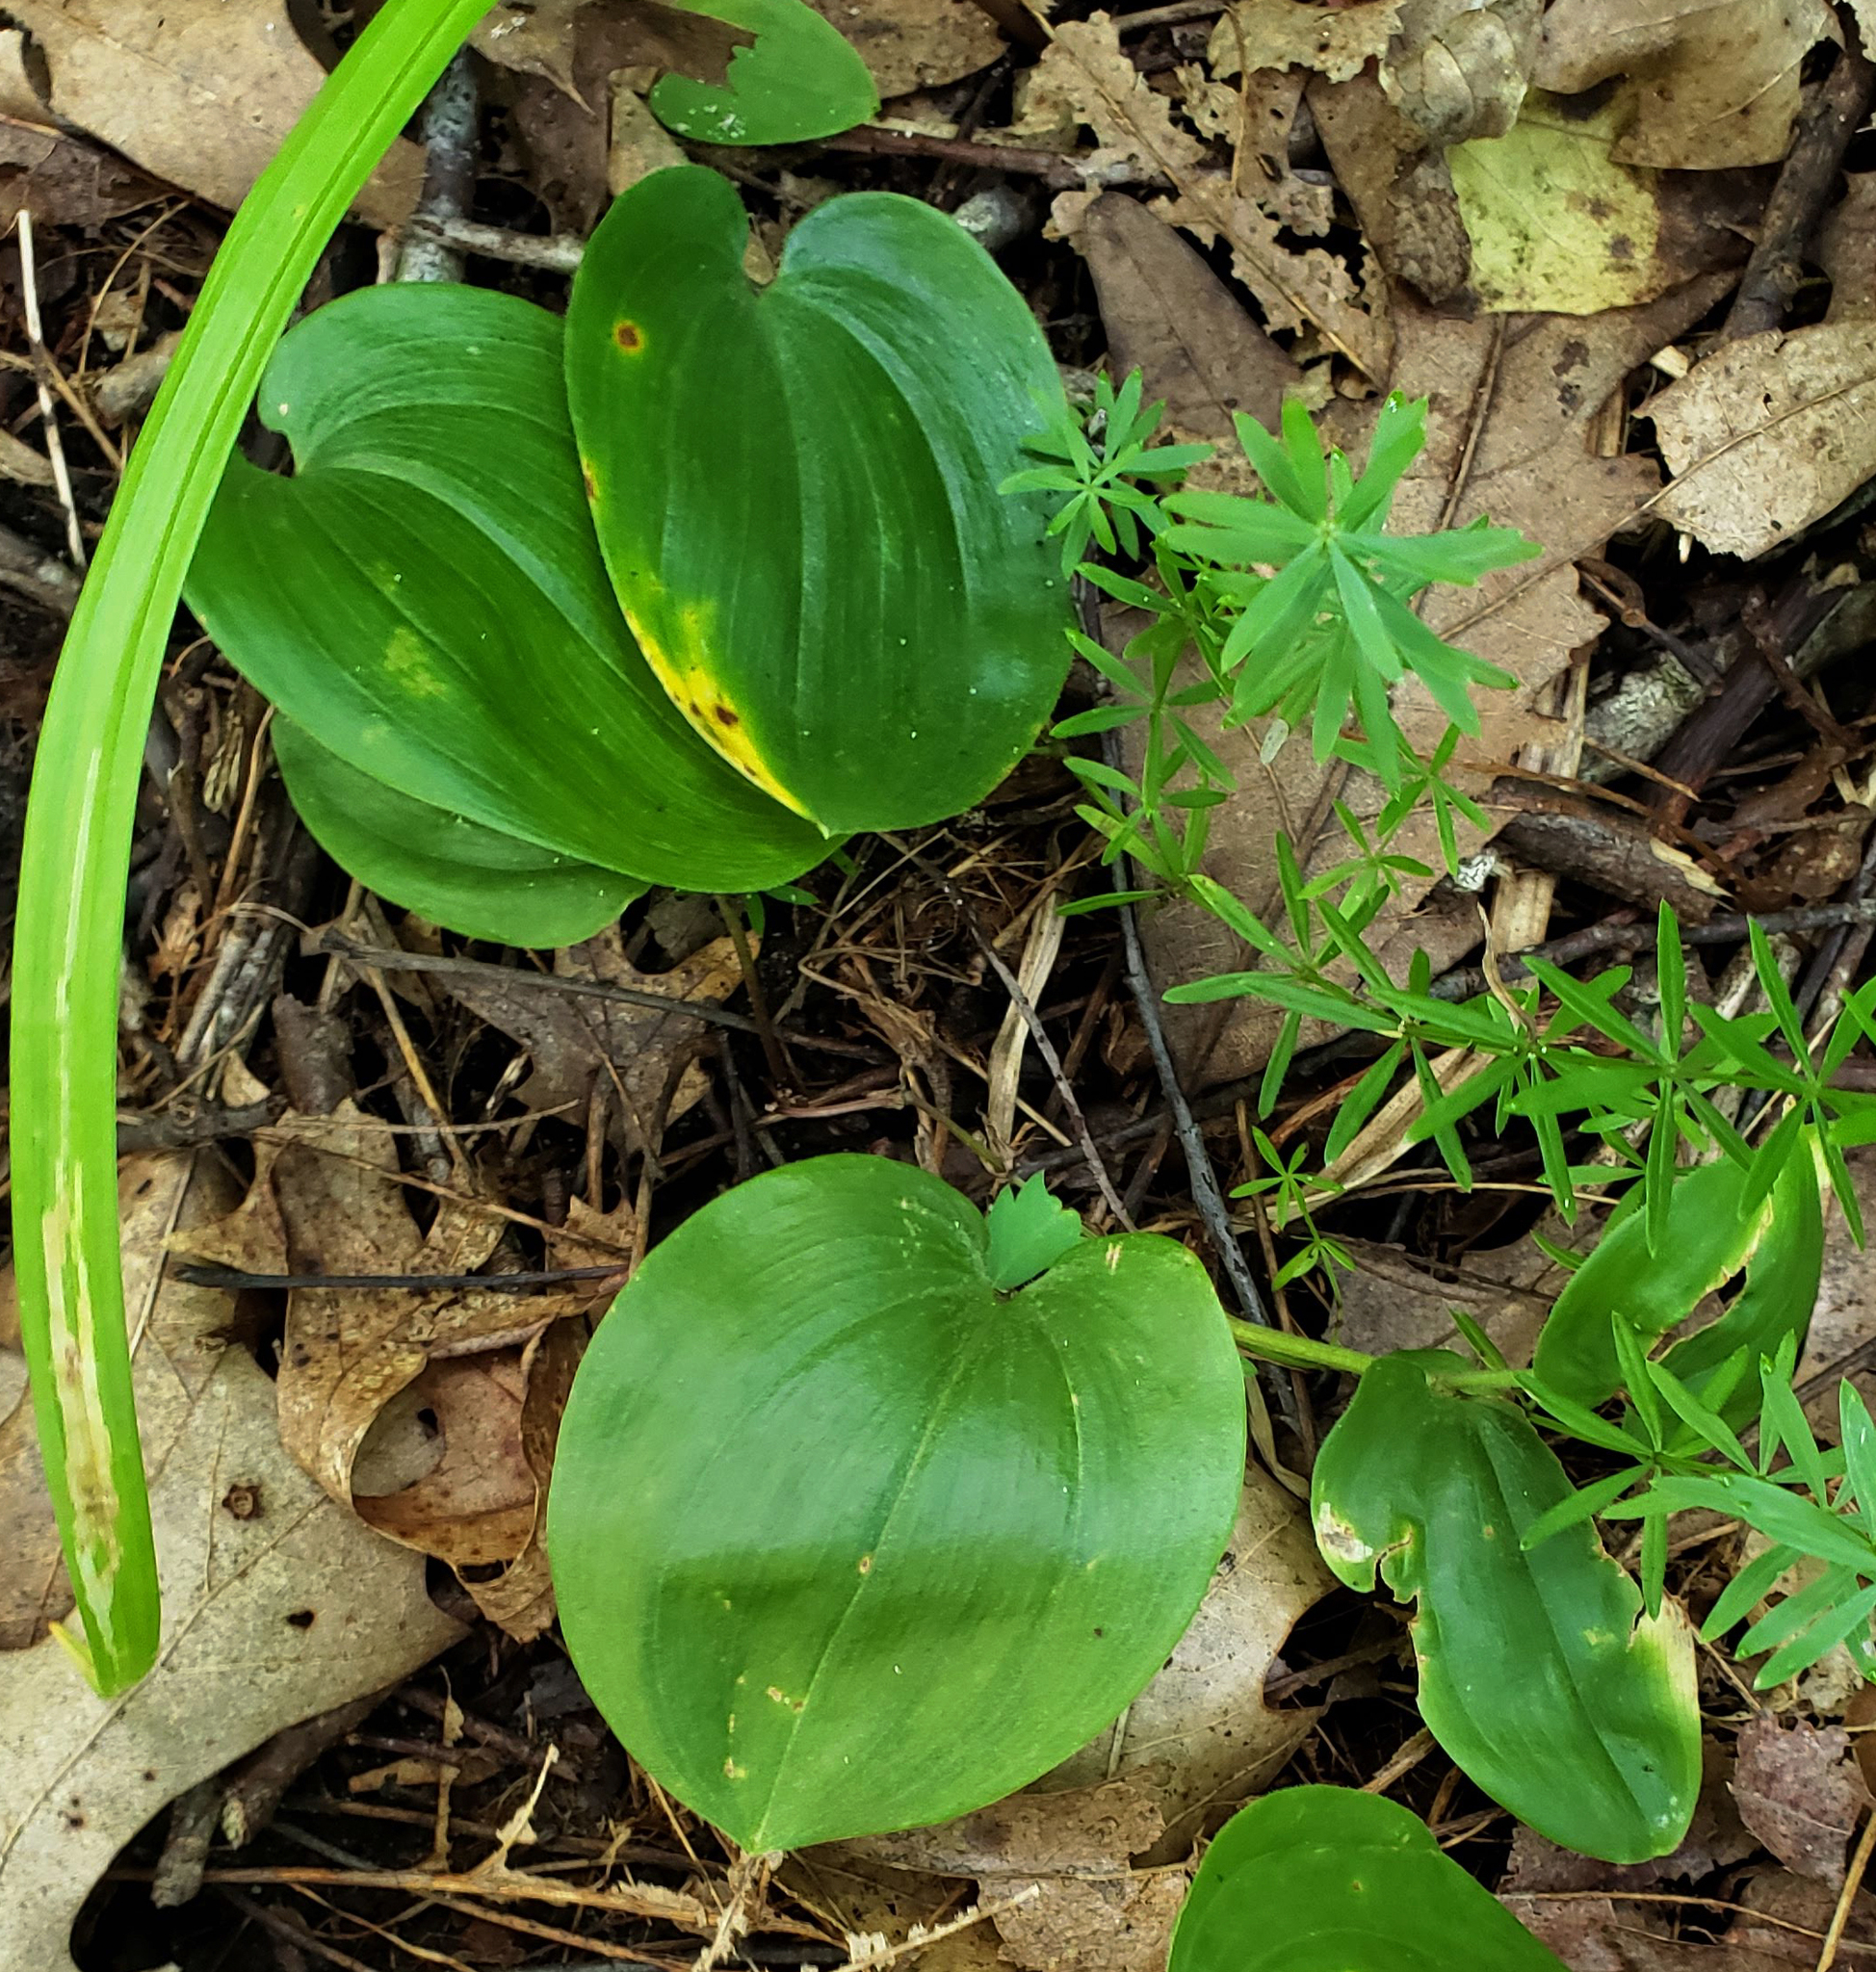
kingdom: Plantae
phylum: Tracheophyta
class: Liliopsida
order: Asparagales
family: Asparagaceae
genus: Maianthemum
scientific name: Maianthemum canadense
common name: False lily-of-the-valley
